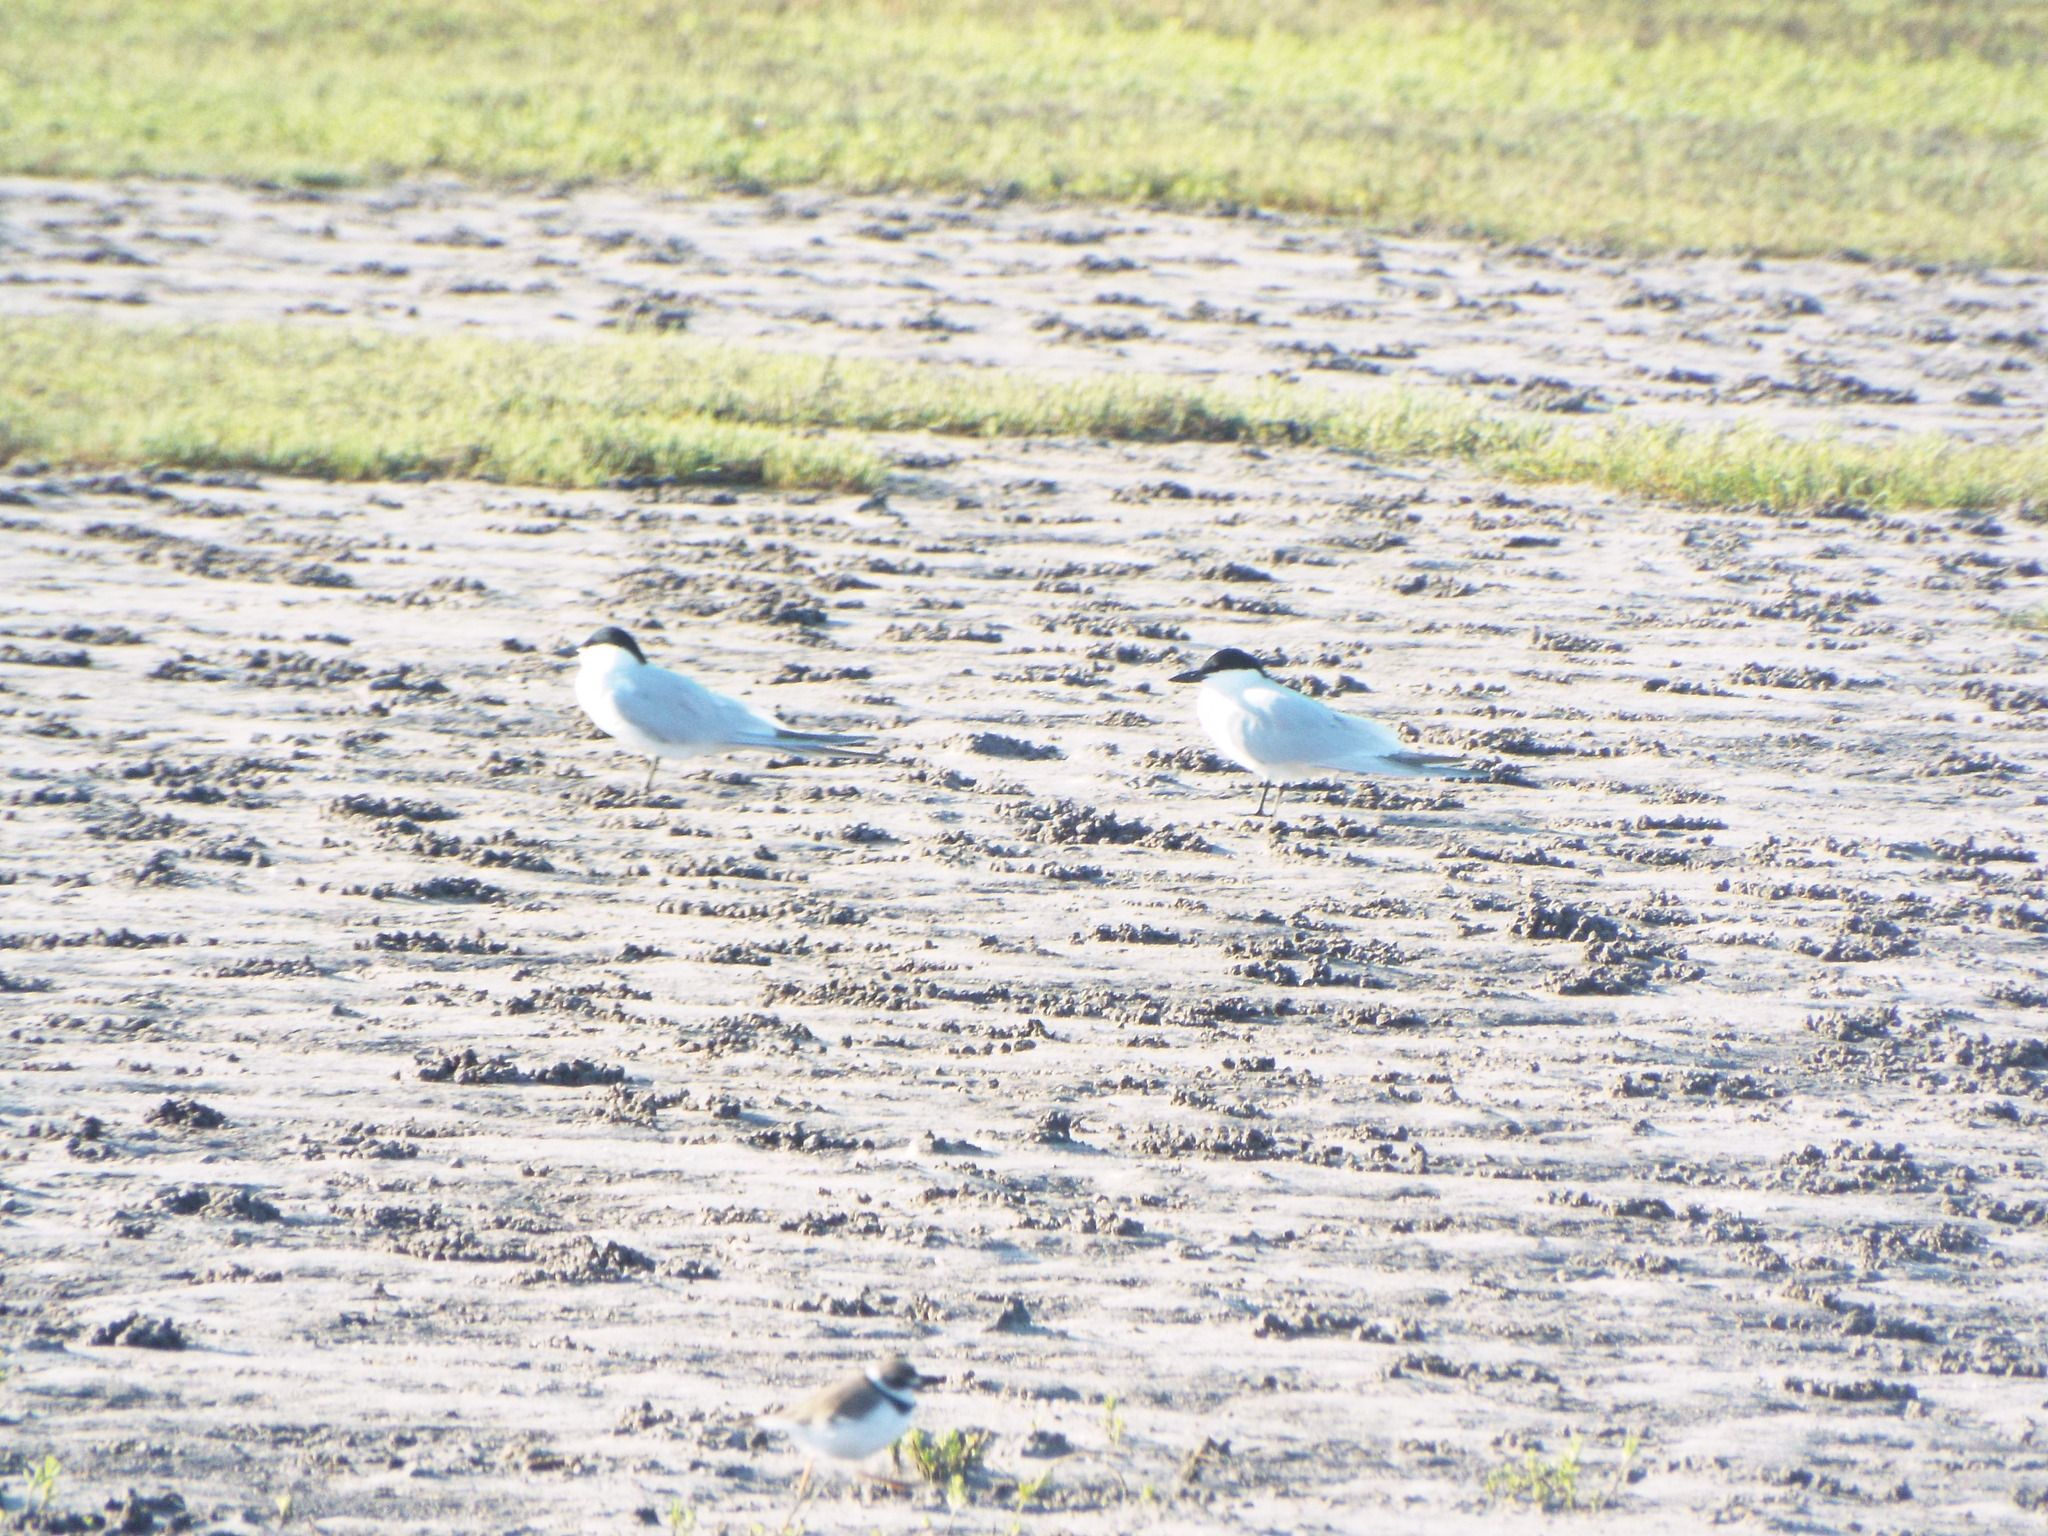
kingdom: Animalia
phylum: Chordata
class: Aves
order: Charadriiformes
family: Laridae
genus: Gelochelidon
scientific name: Gelochelidon nilotica
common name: Gull-billed tern
